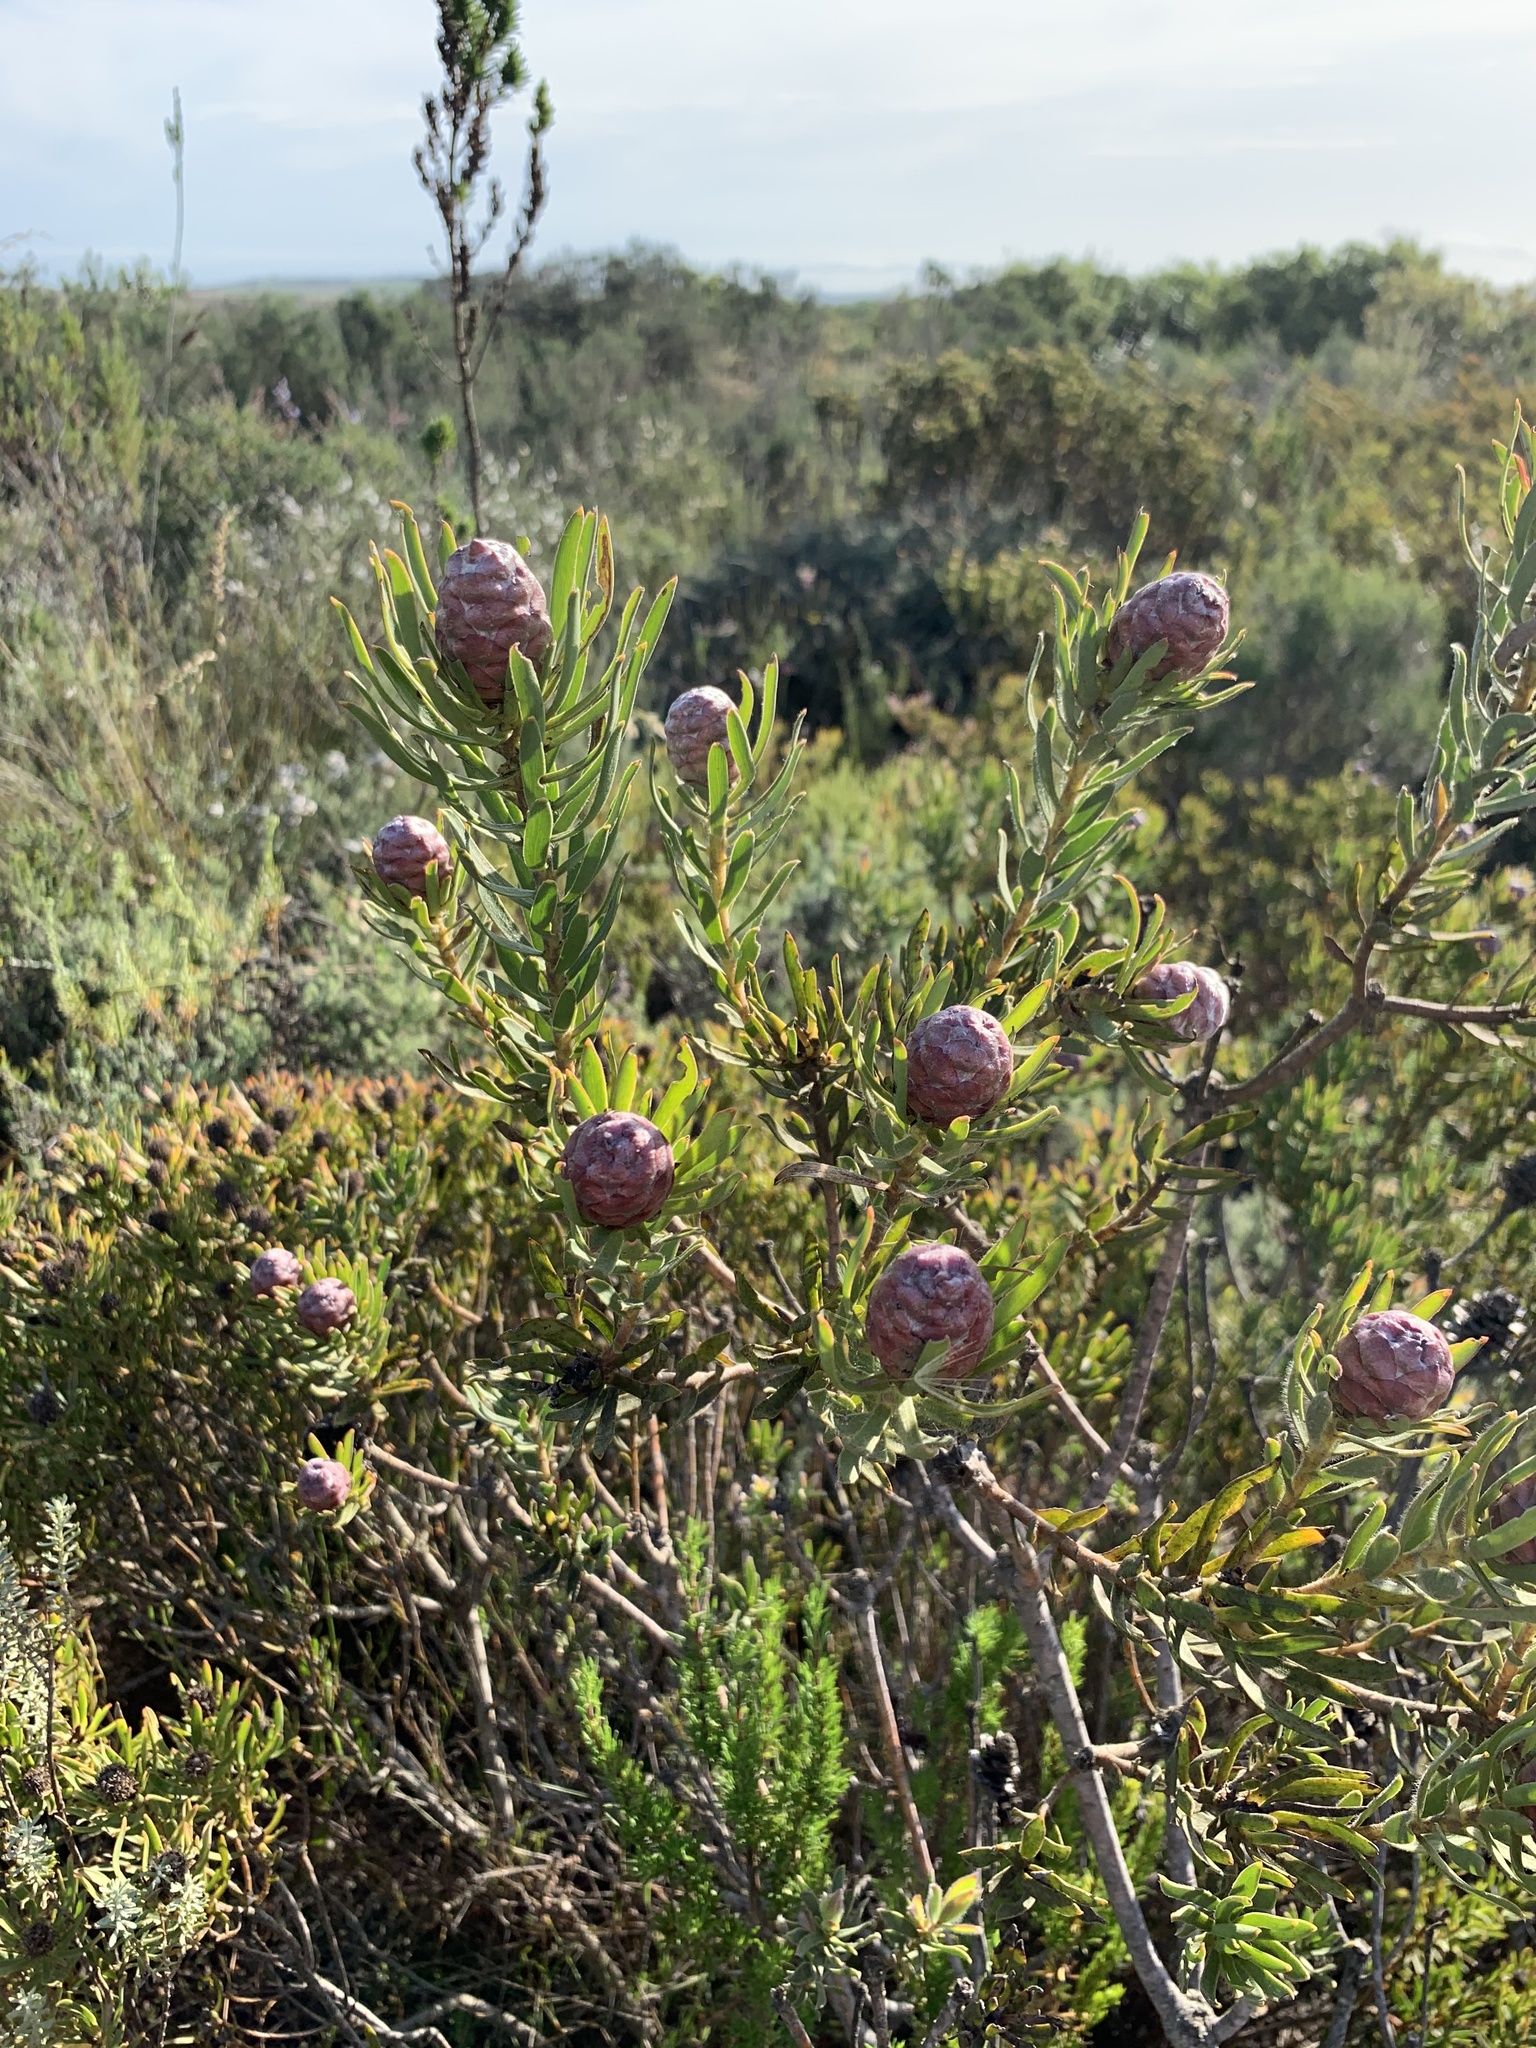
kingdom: Plantae
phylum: Tracheophyta
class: Magnoliopsida
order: Proteales
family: Proteaceae
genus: Leucadendron
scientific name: Leucadendron lanigerum
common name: Shale conebush
